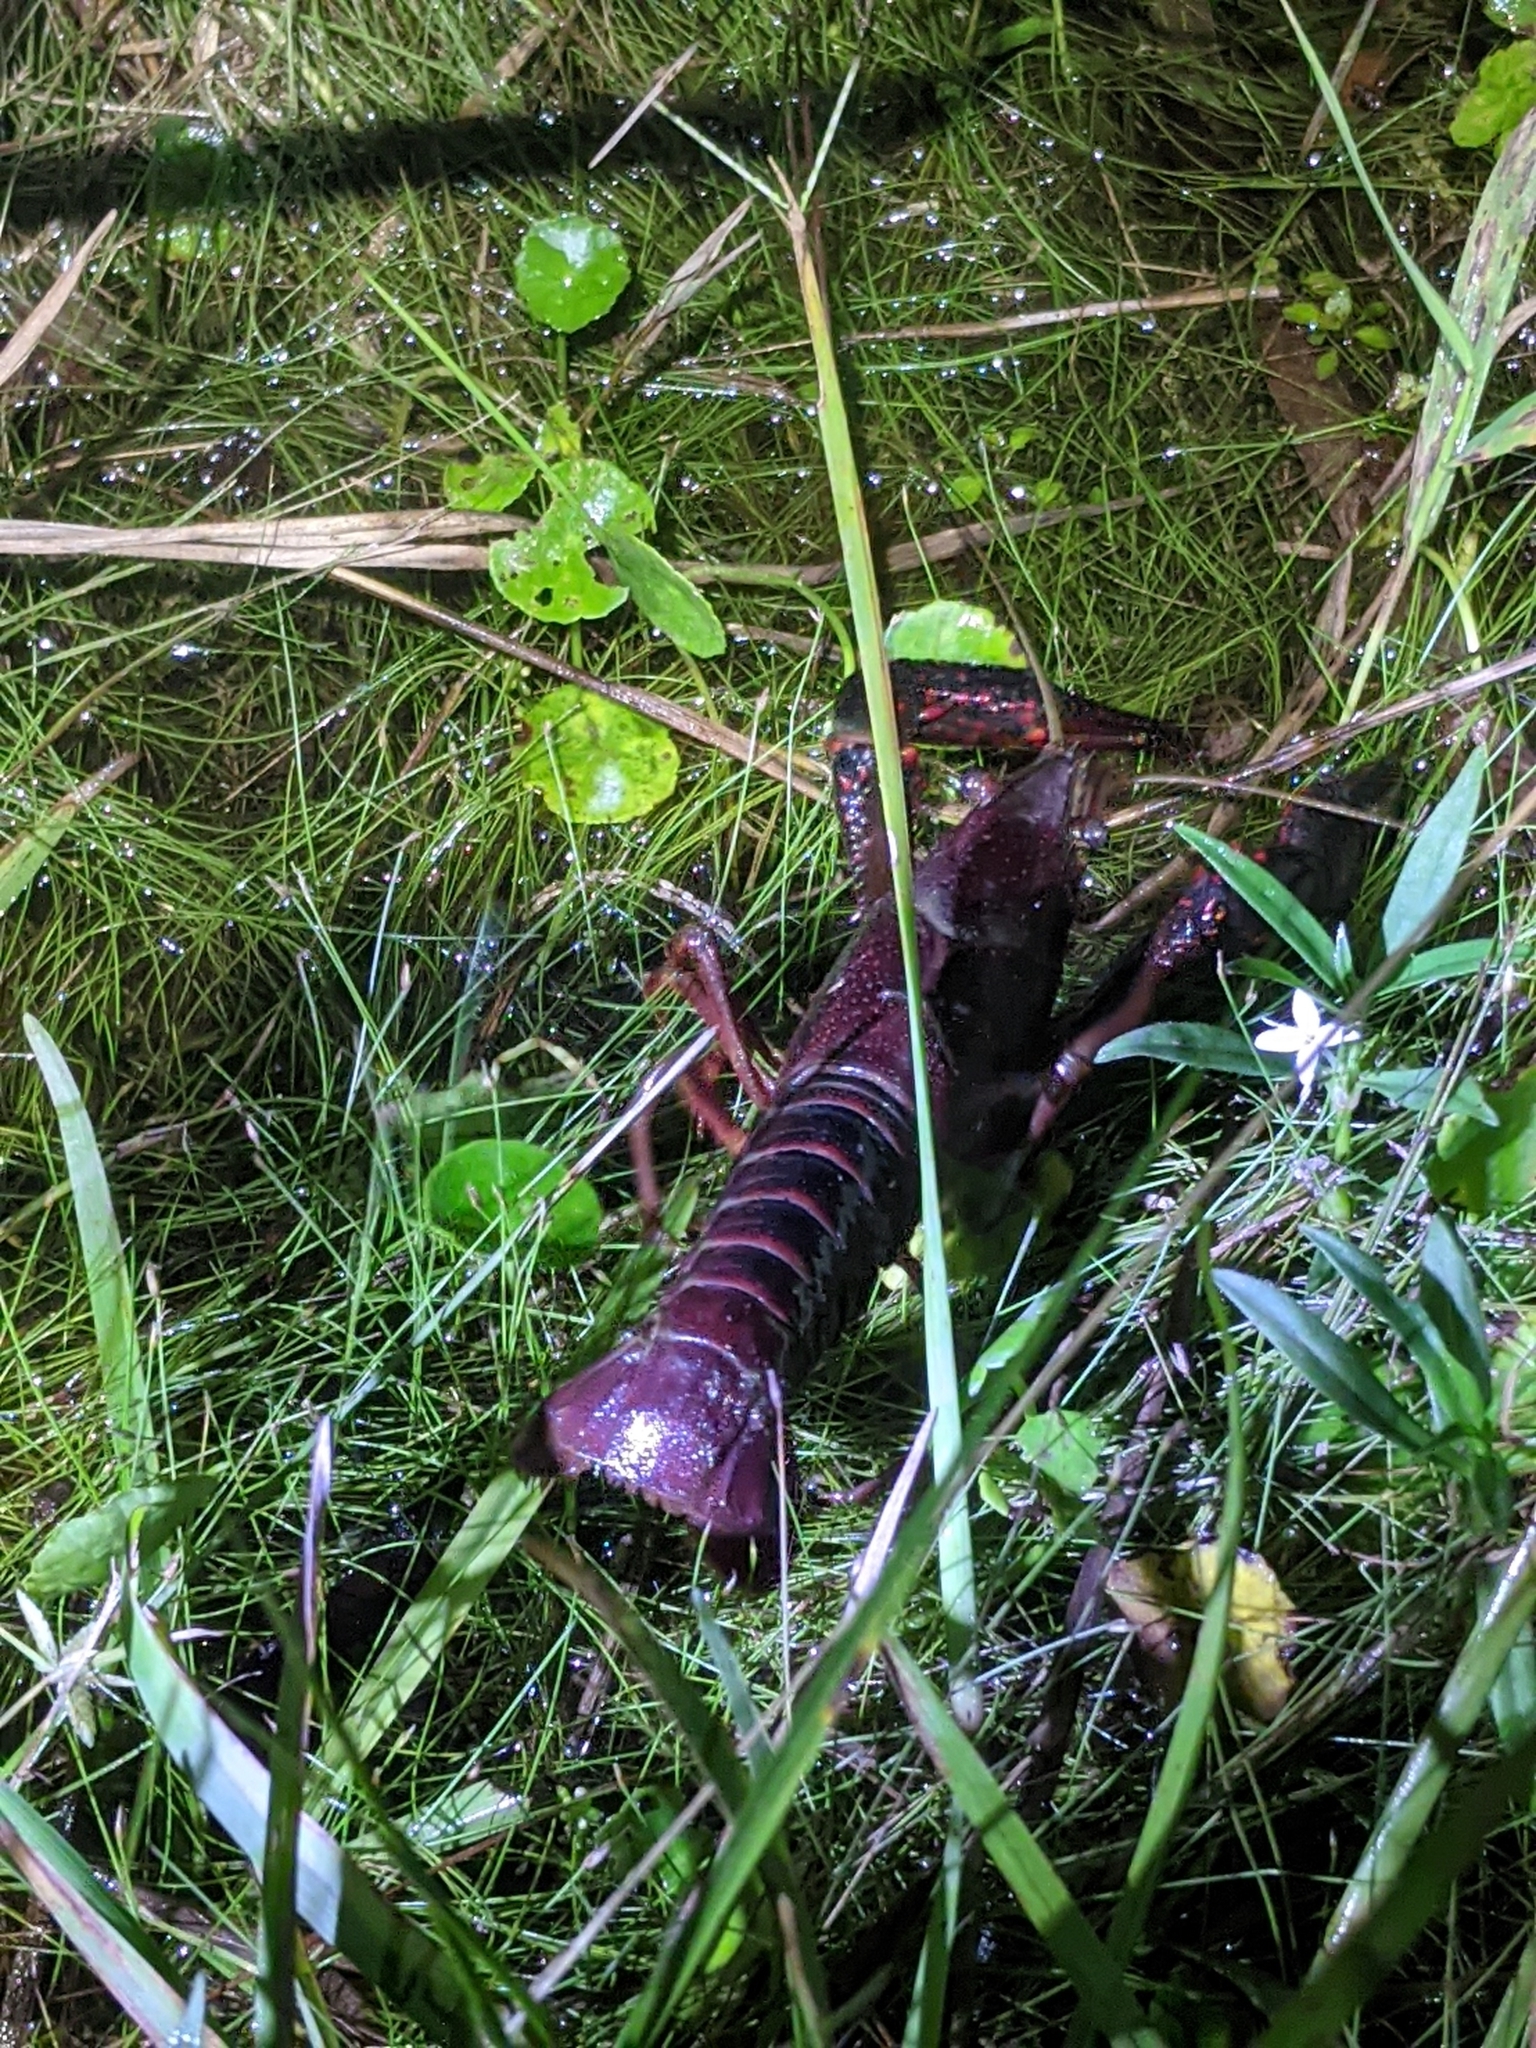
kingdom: Animalia
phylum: Arthropoda
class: Malacostraca
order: Decapoda
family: Cambaridae
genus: Procambarus
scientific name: Procambarus clarkii
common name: Red swamp crayfish
